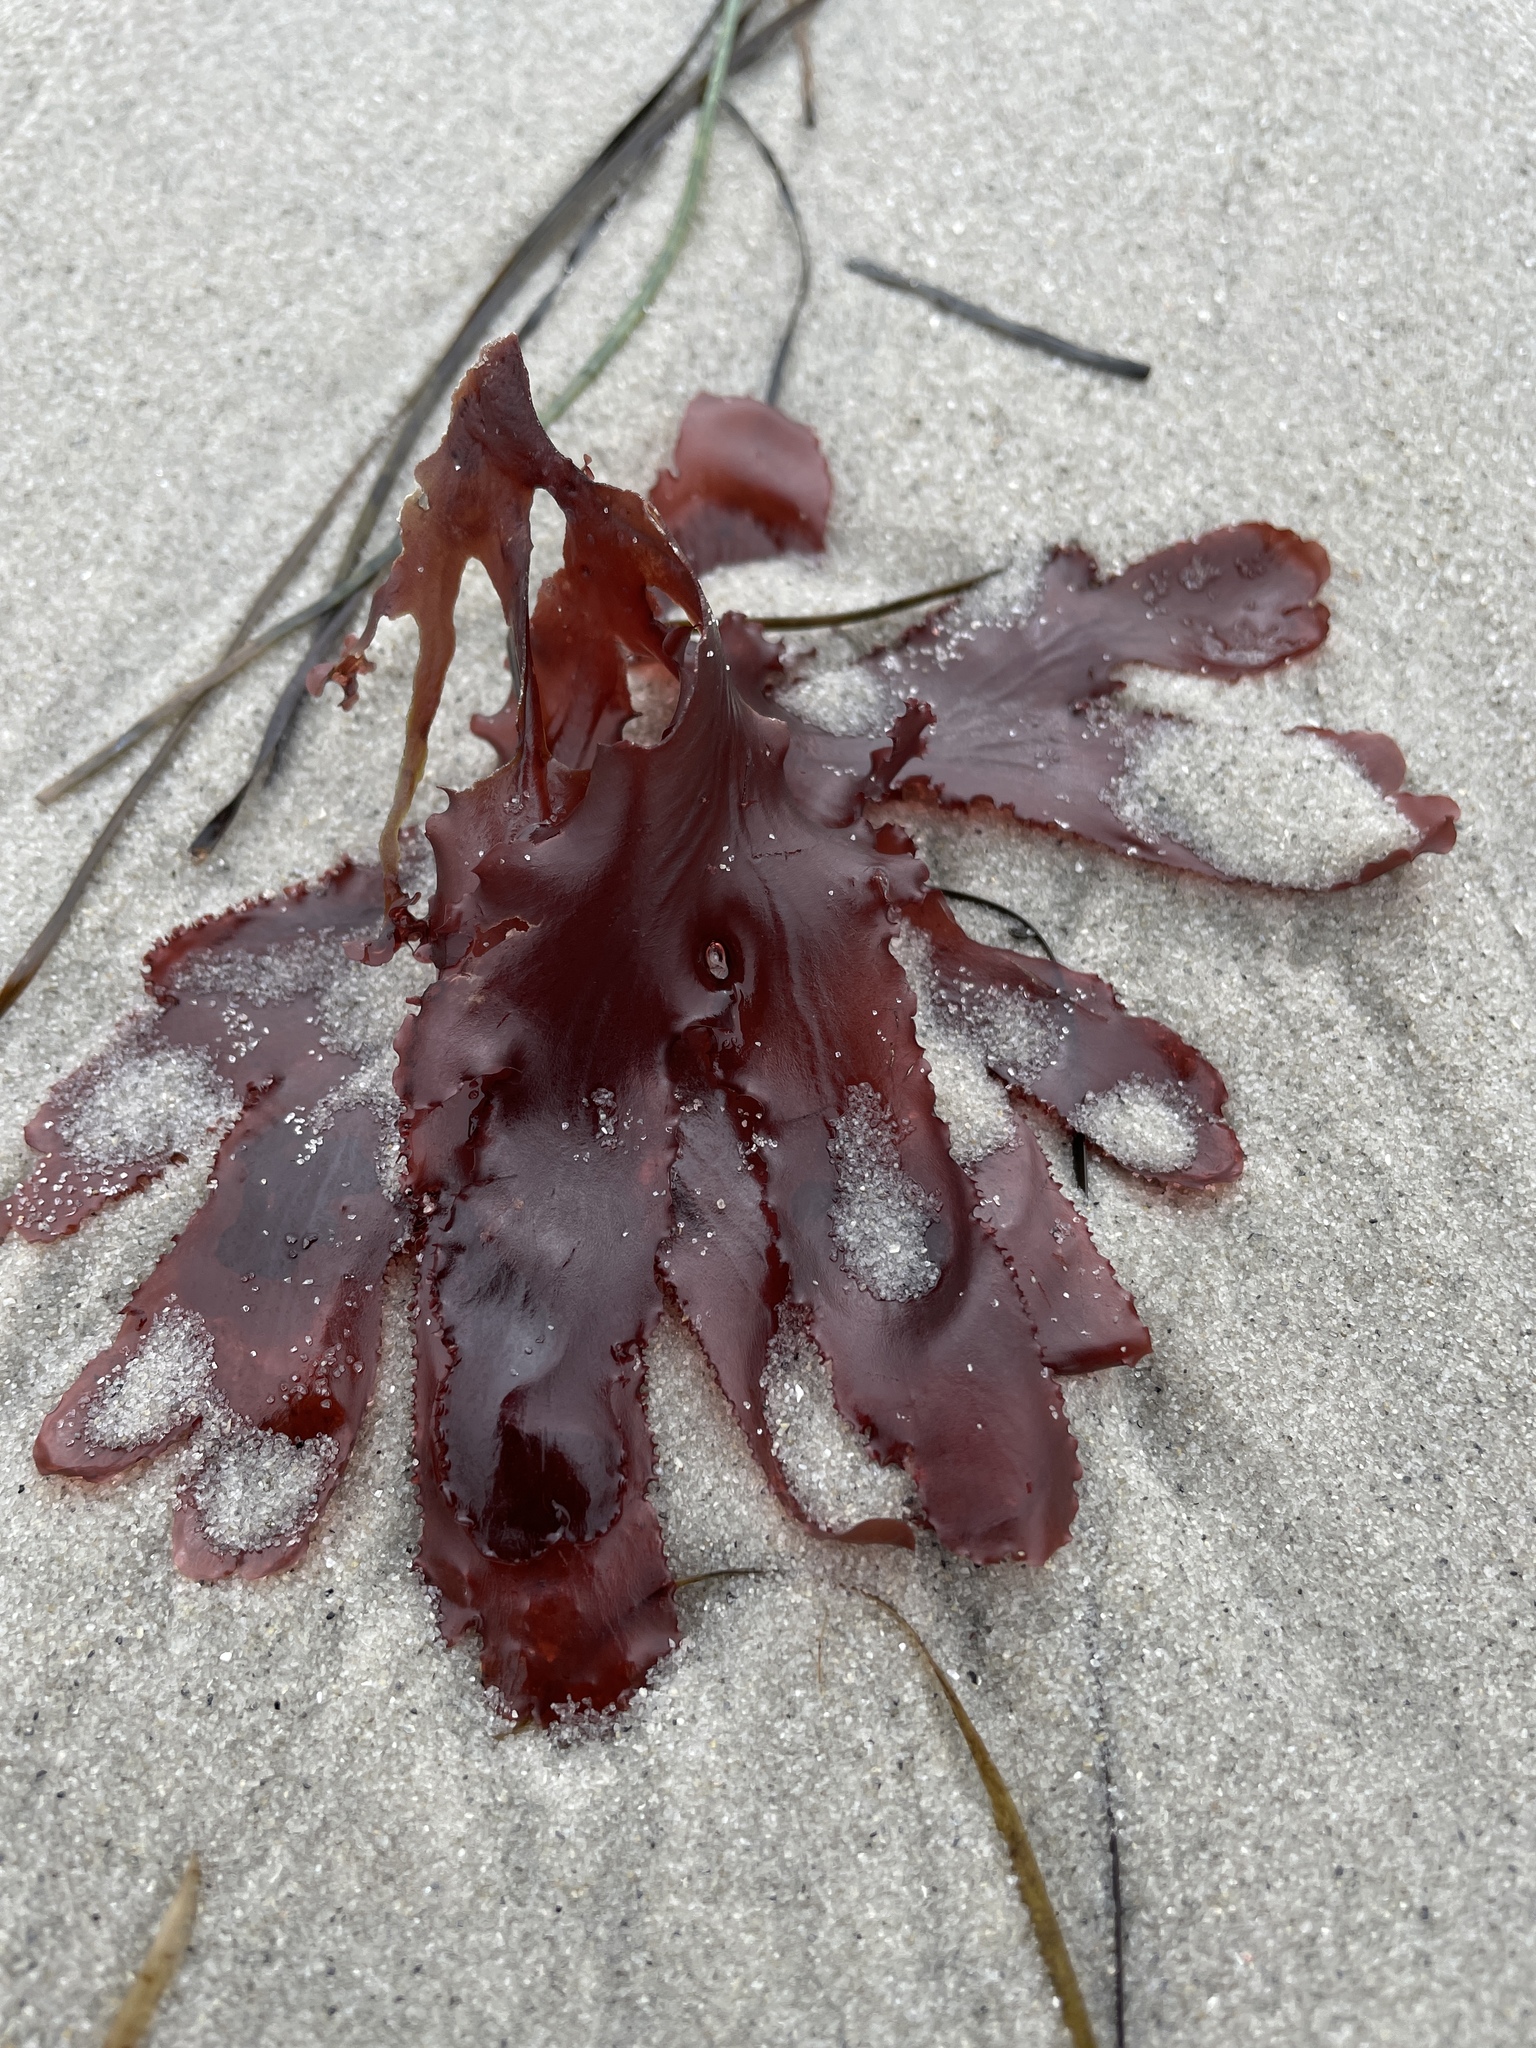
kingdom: Plantae
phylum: Rhodophyta
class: Florideophyceae
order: Ceramiales
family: Delesseriaceae
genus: Cryptopleura
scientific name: Cryptopleura ruprechtiana
